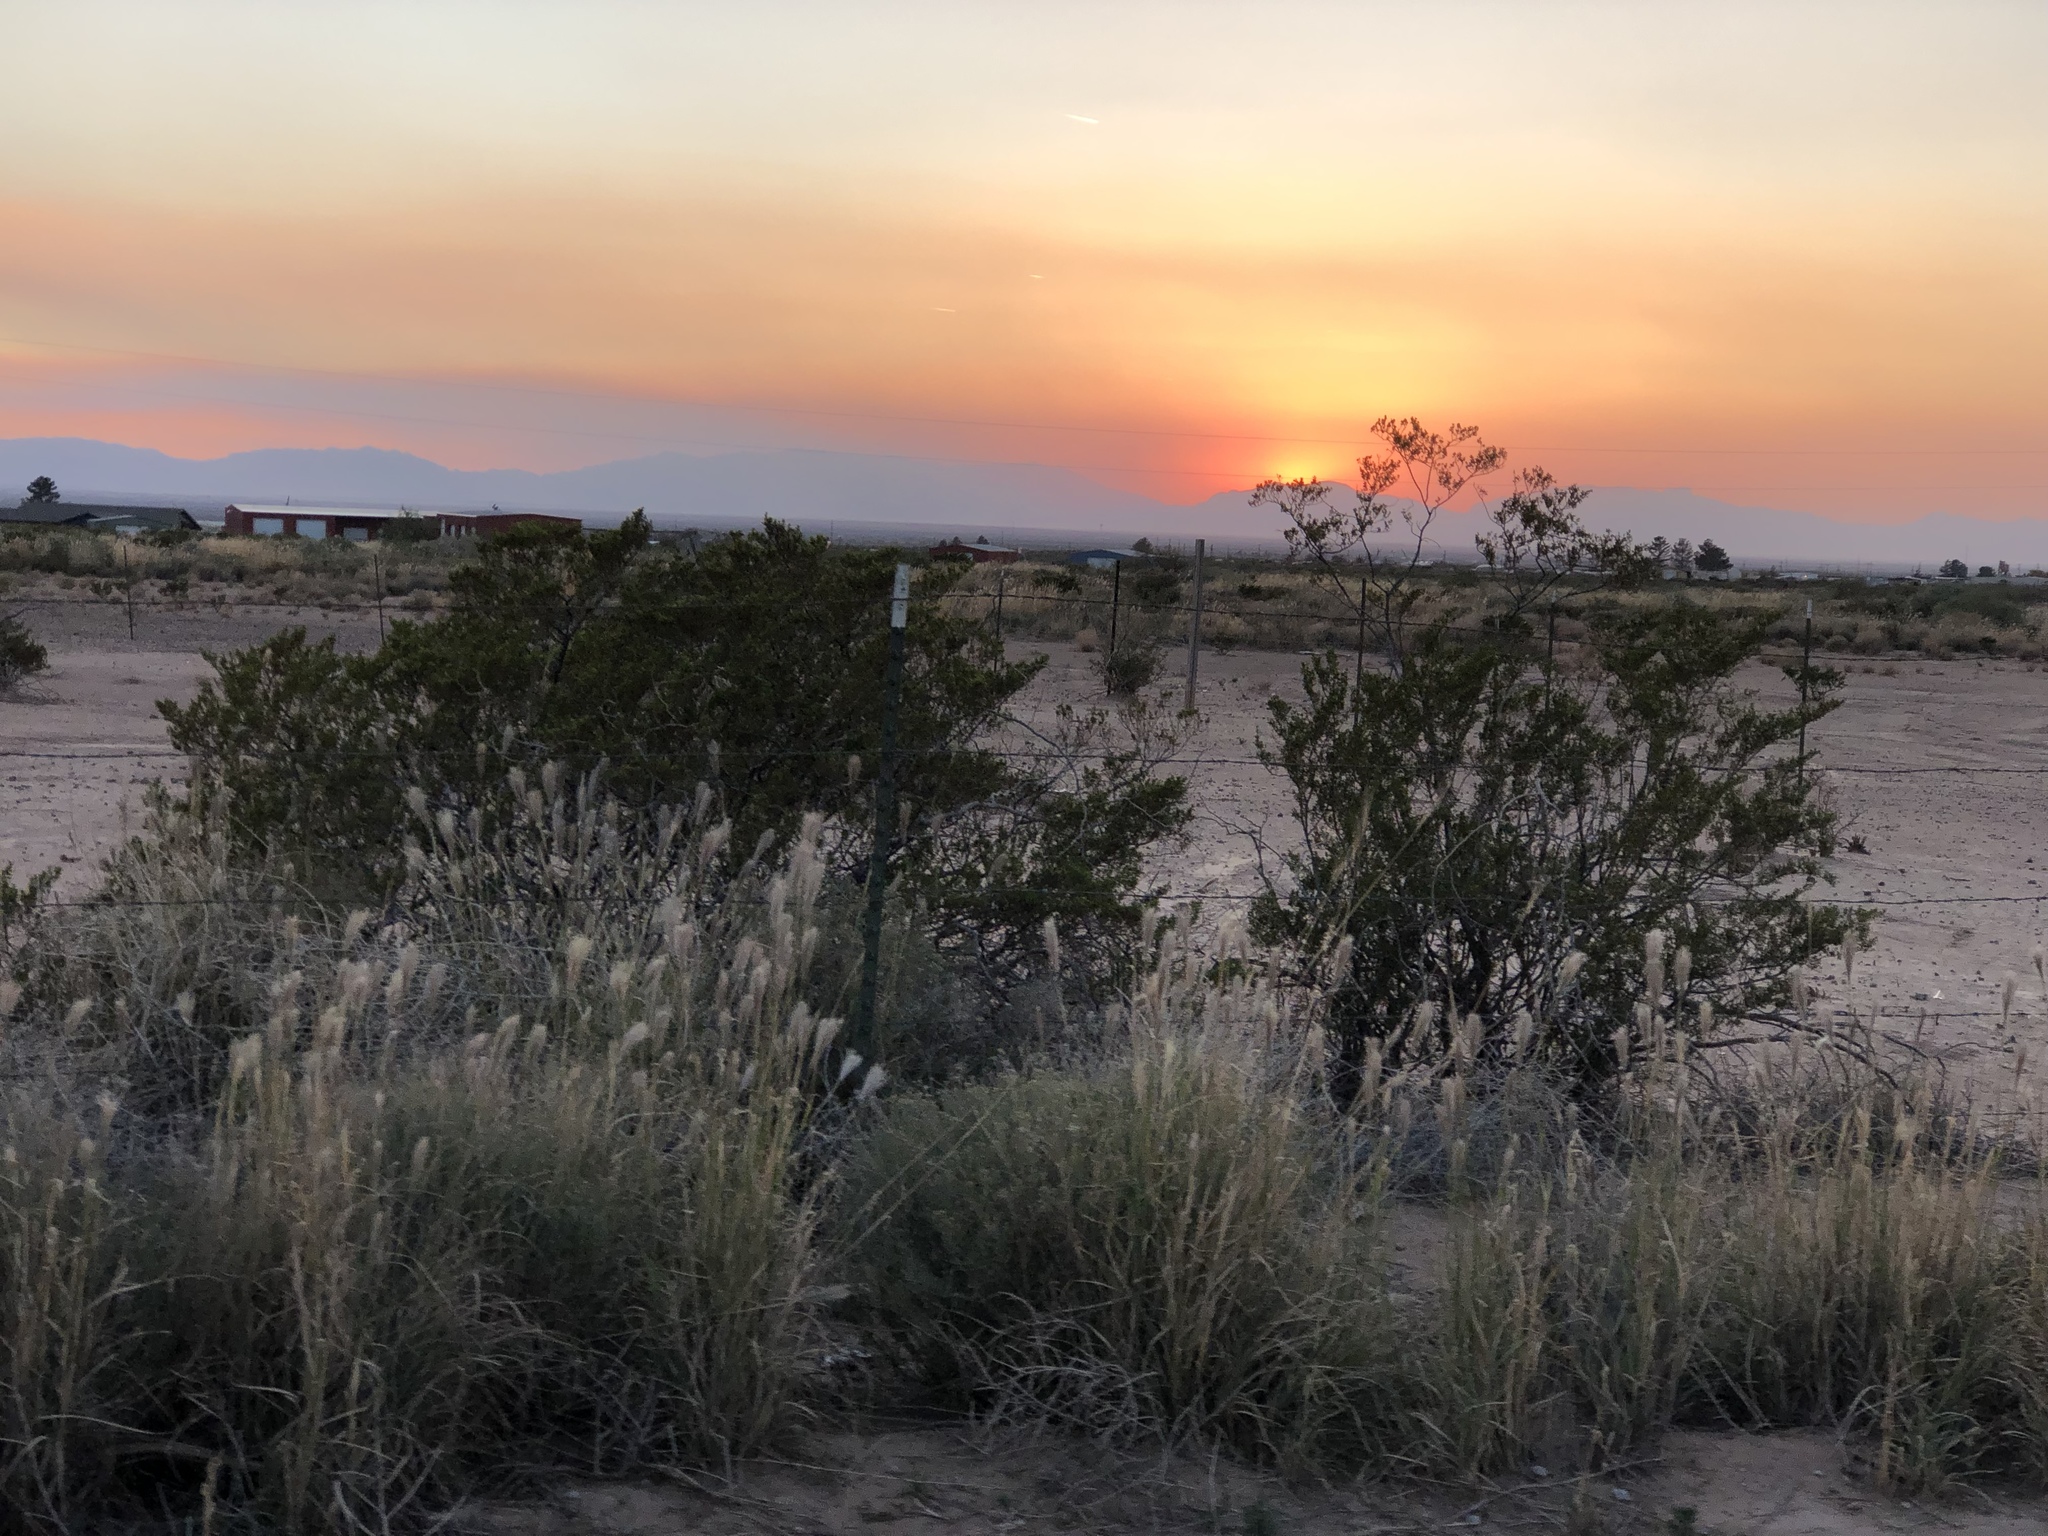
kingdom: Plantae
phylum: Tracheophyta
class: Magnoliopsida
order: Zygophyllales
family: Zygophyllaceae
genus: Larrea
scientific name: Larrea tridentata
